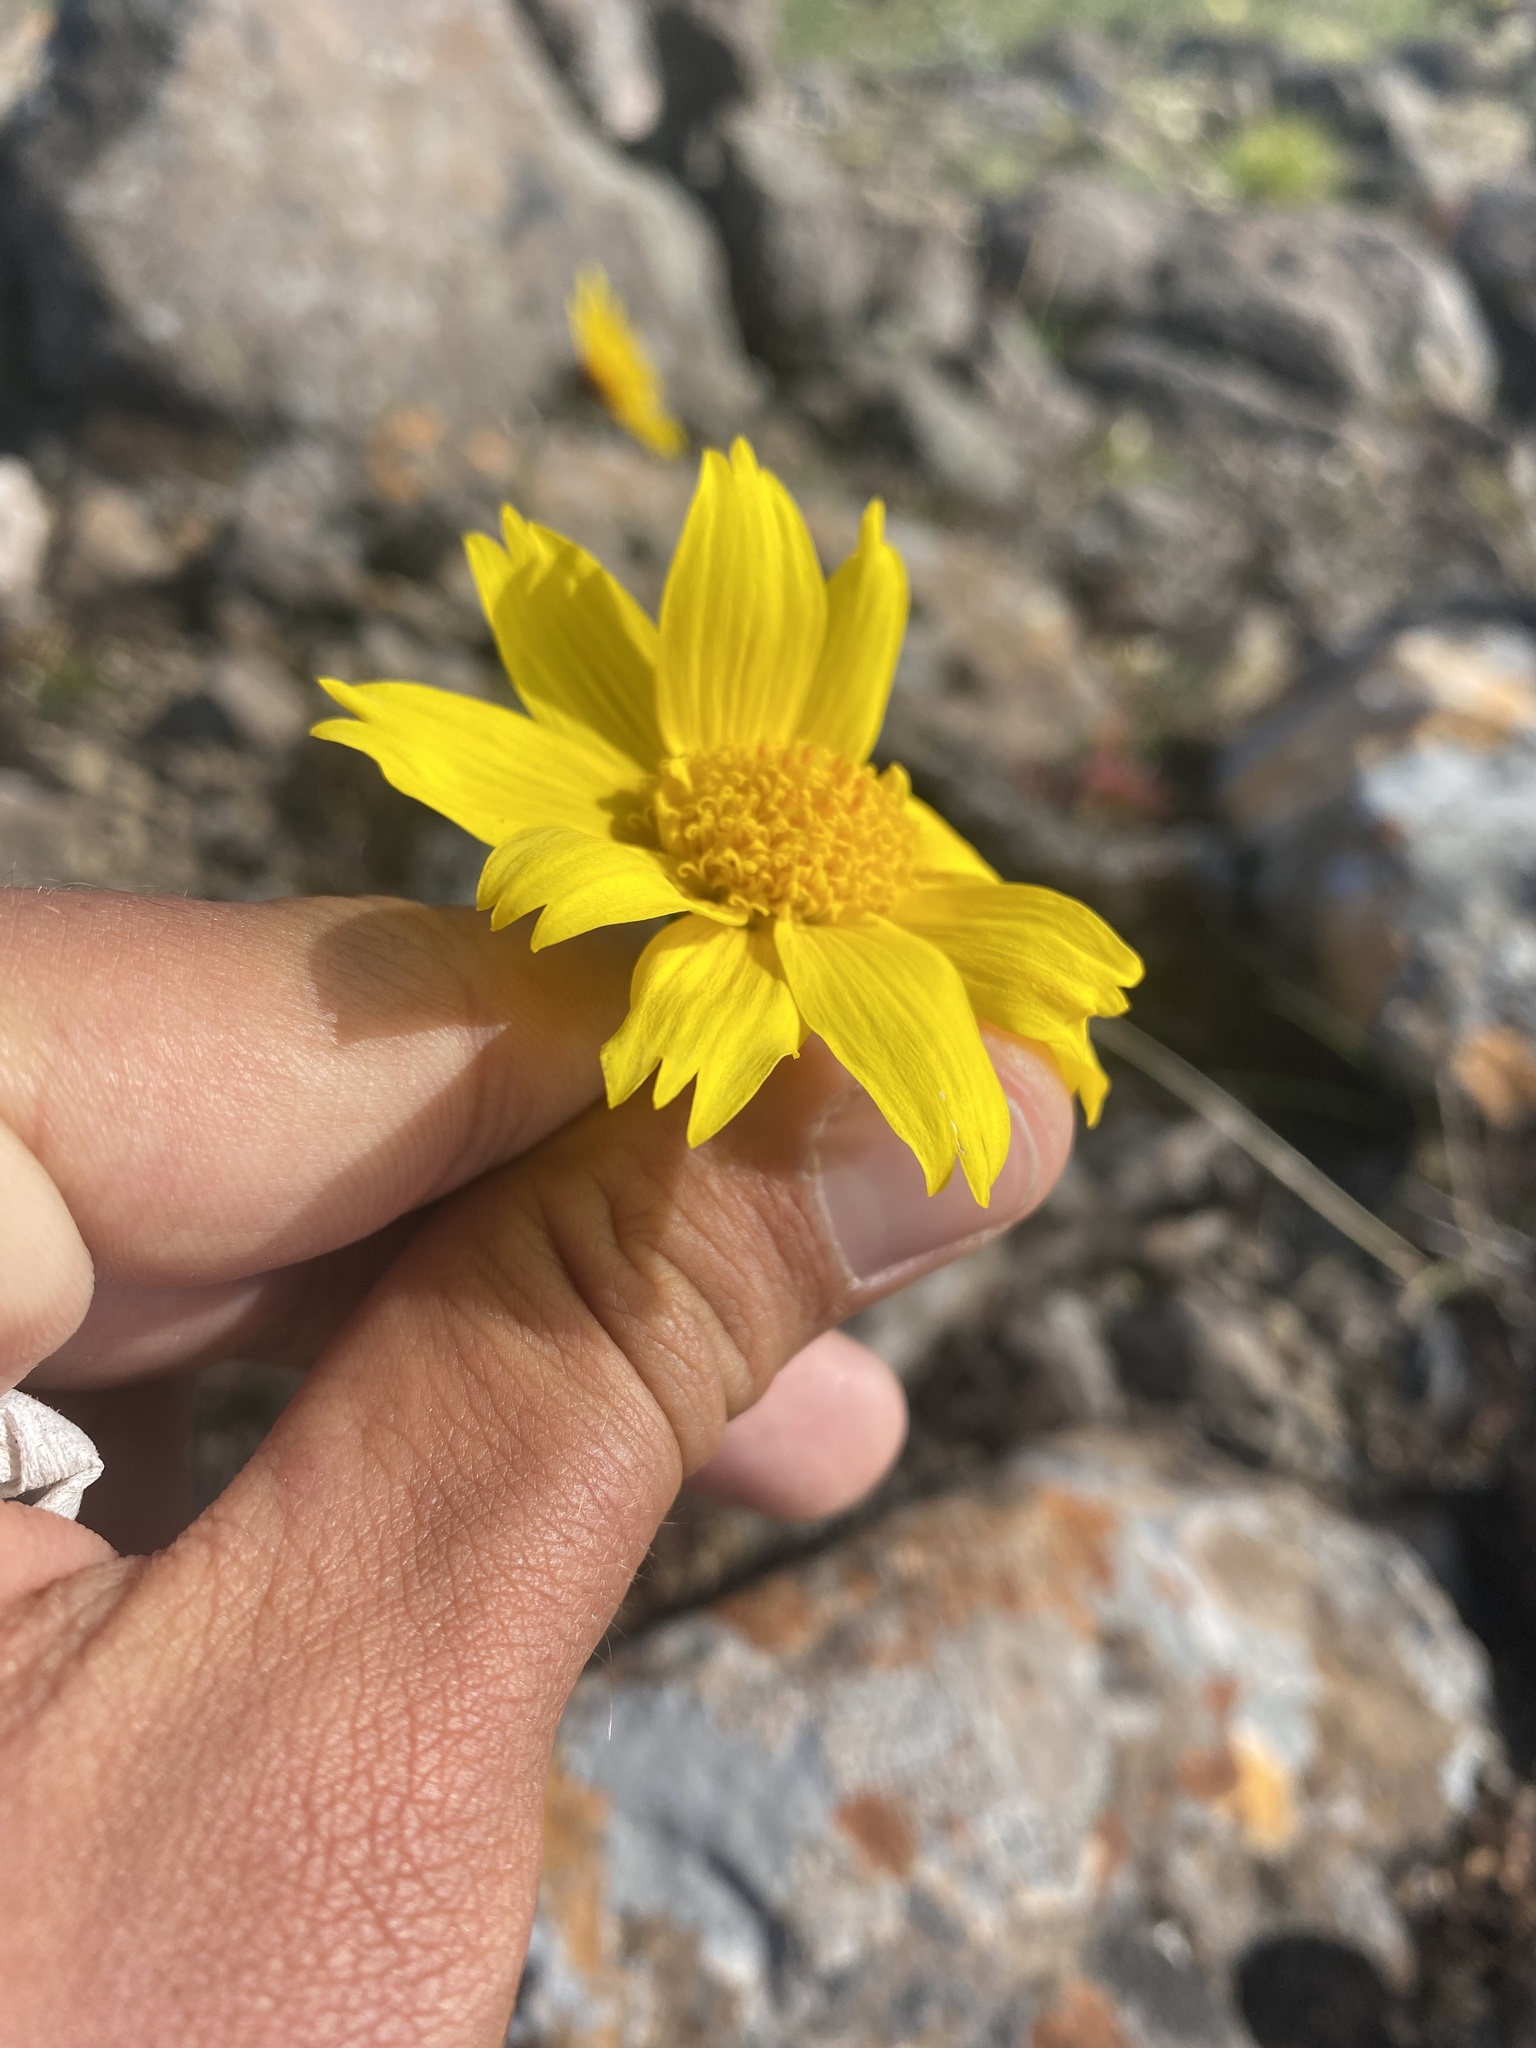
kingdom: Plantae
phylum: Tracheophyta
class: Magnoliopsida
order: Asterales
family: Asteraceae
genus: Arnica
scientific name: Arnica angustifolia
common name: Arctic arnica
